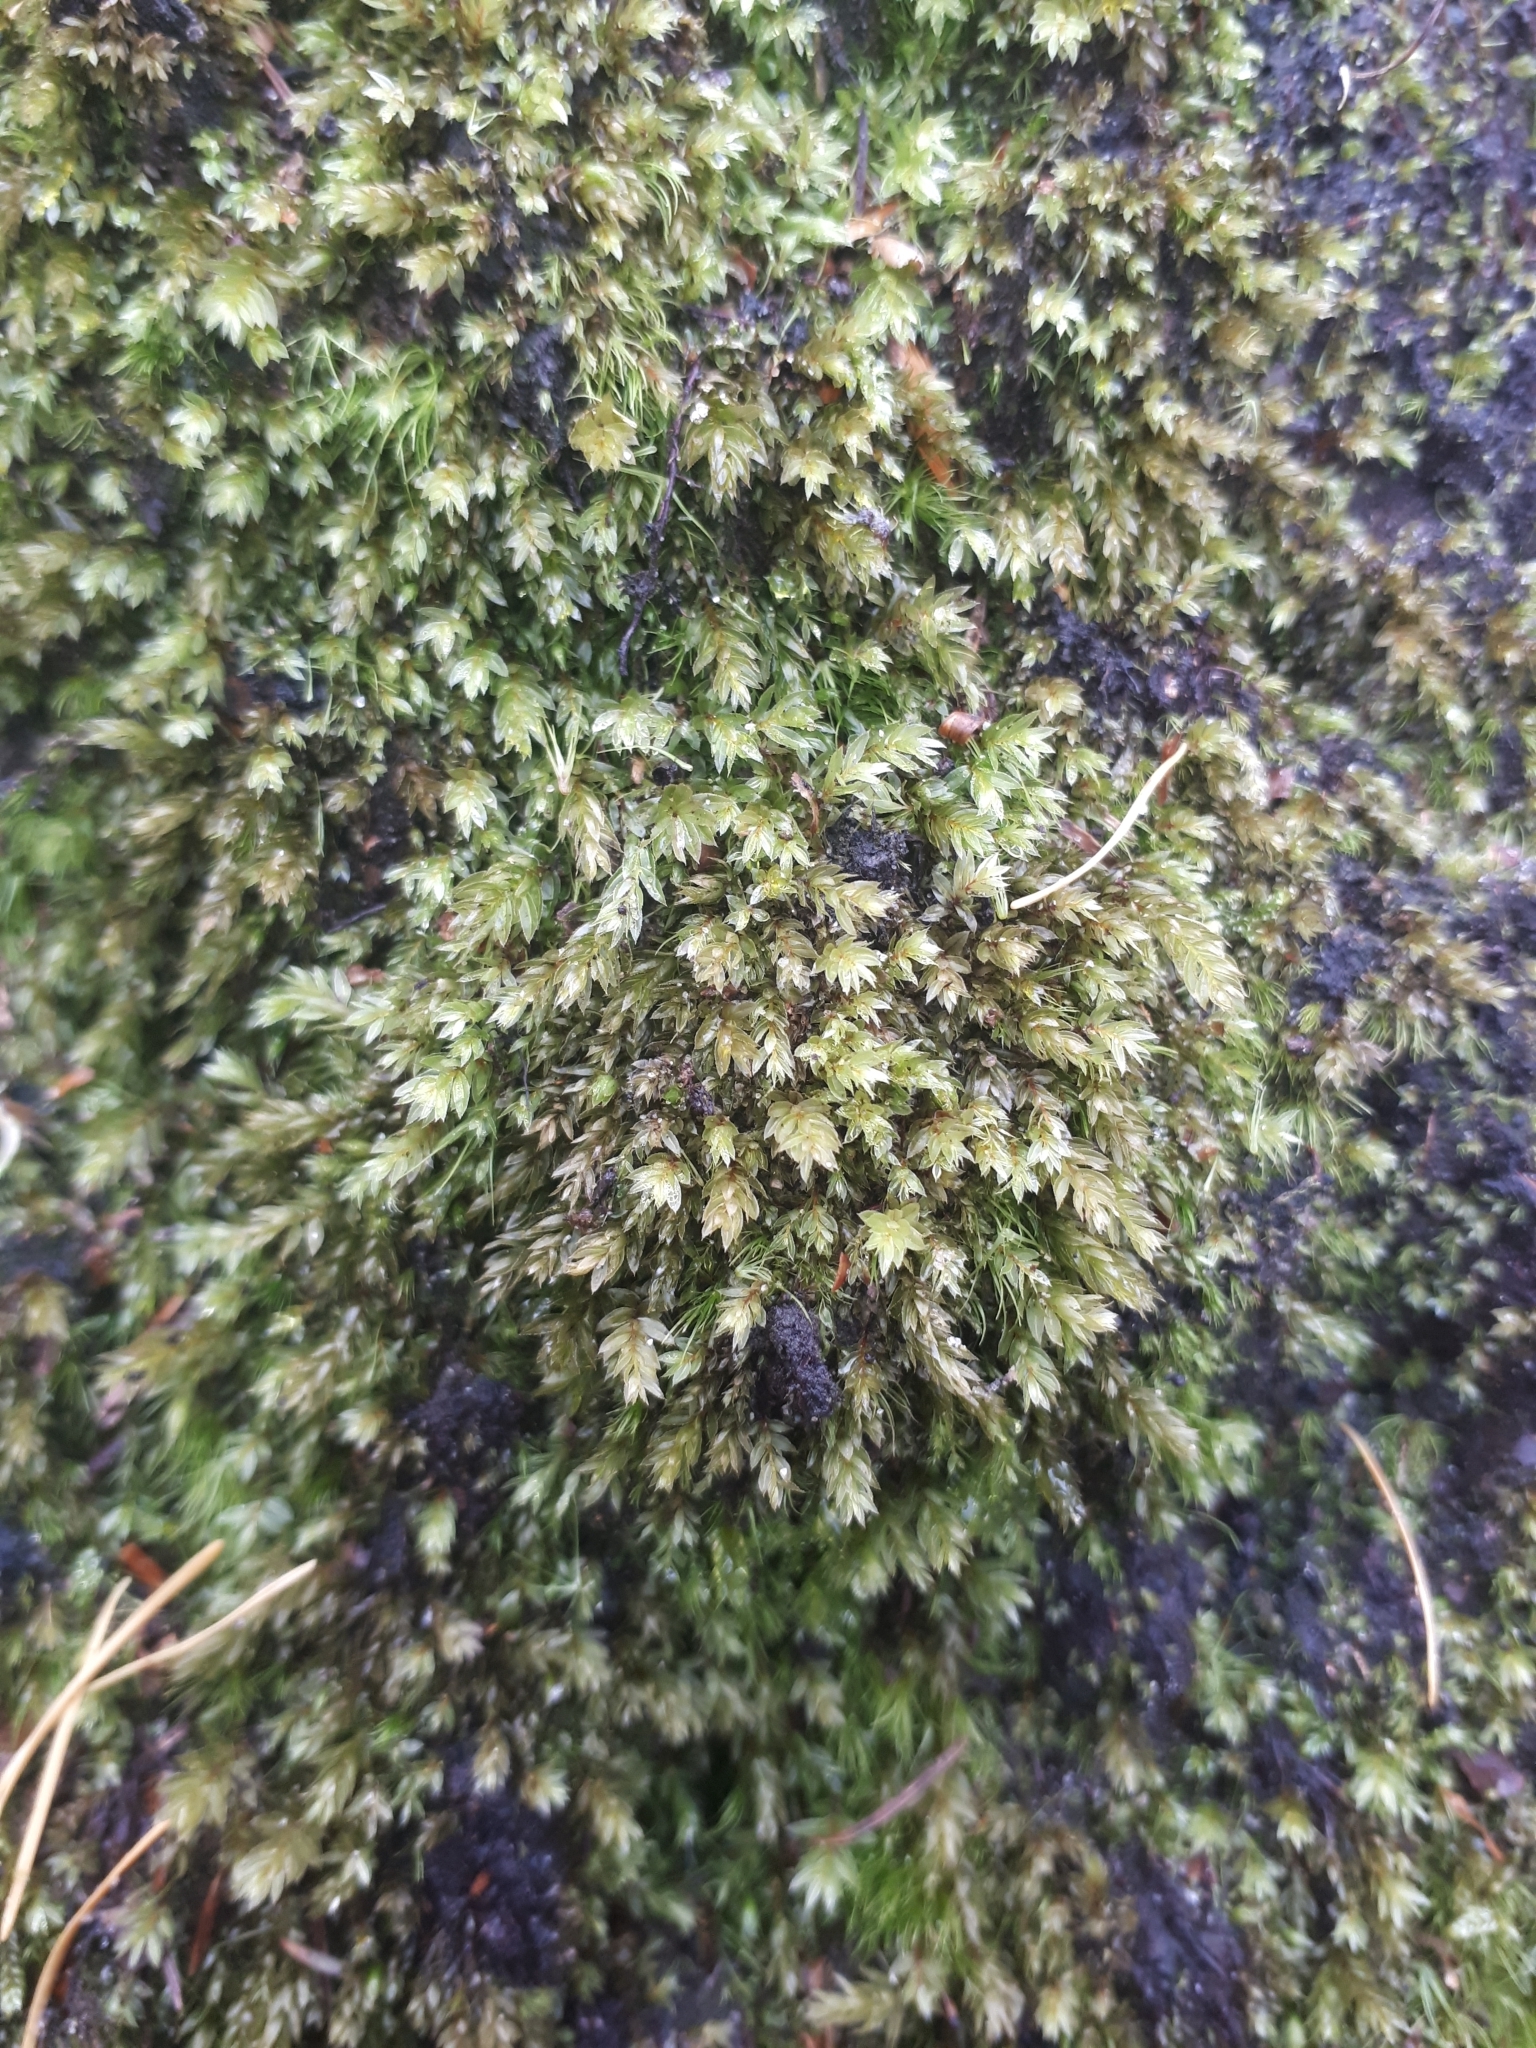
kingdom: Plantae
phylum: Bryophyta
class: Bryopsida
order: Bryales
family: Mniaceae
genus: Mnium
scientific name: Mnium hornum
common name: Swan's-neck leafy moss
